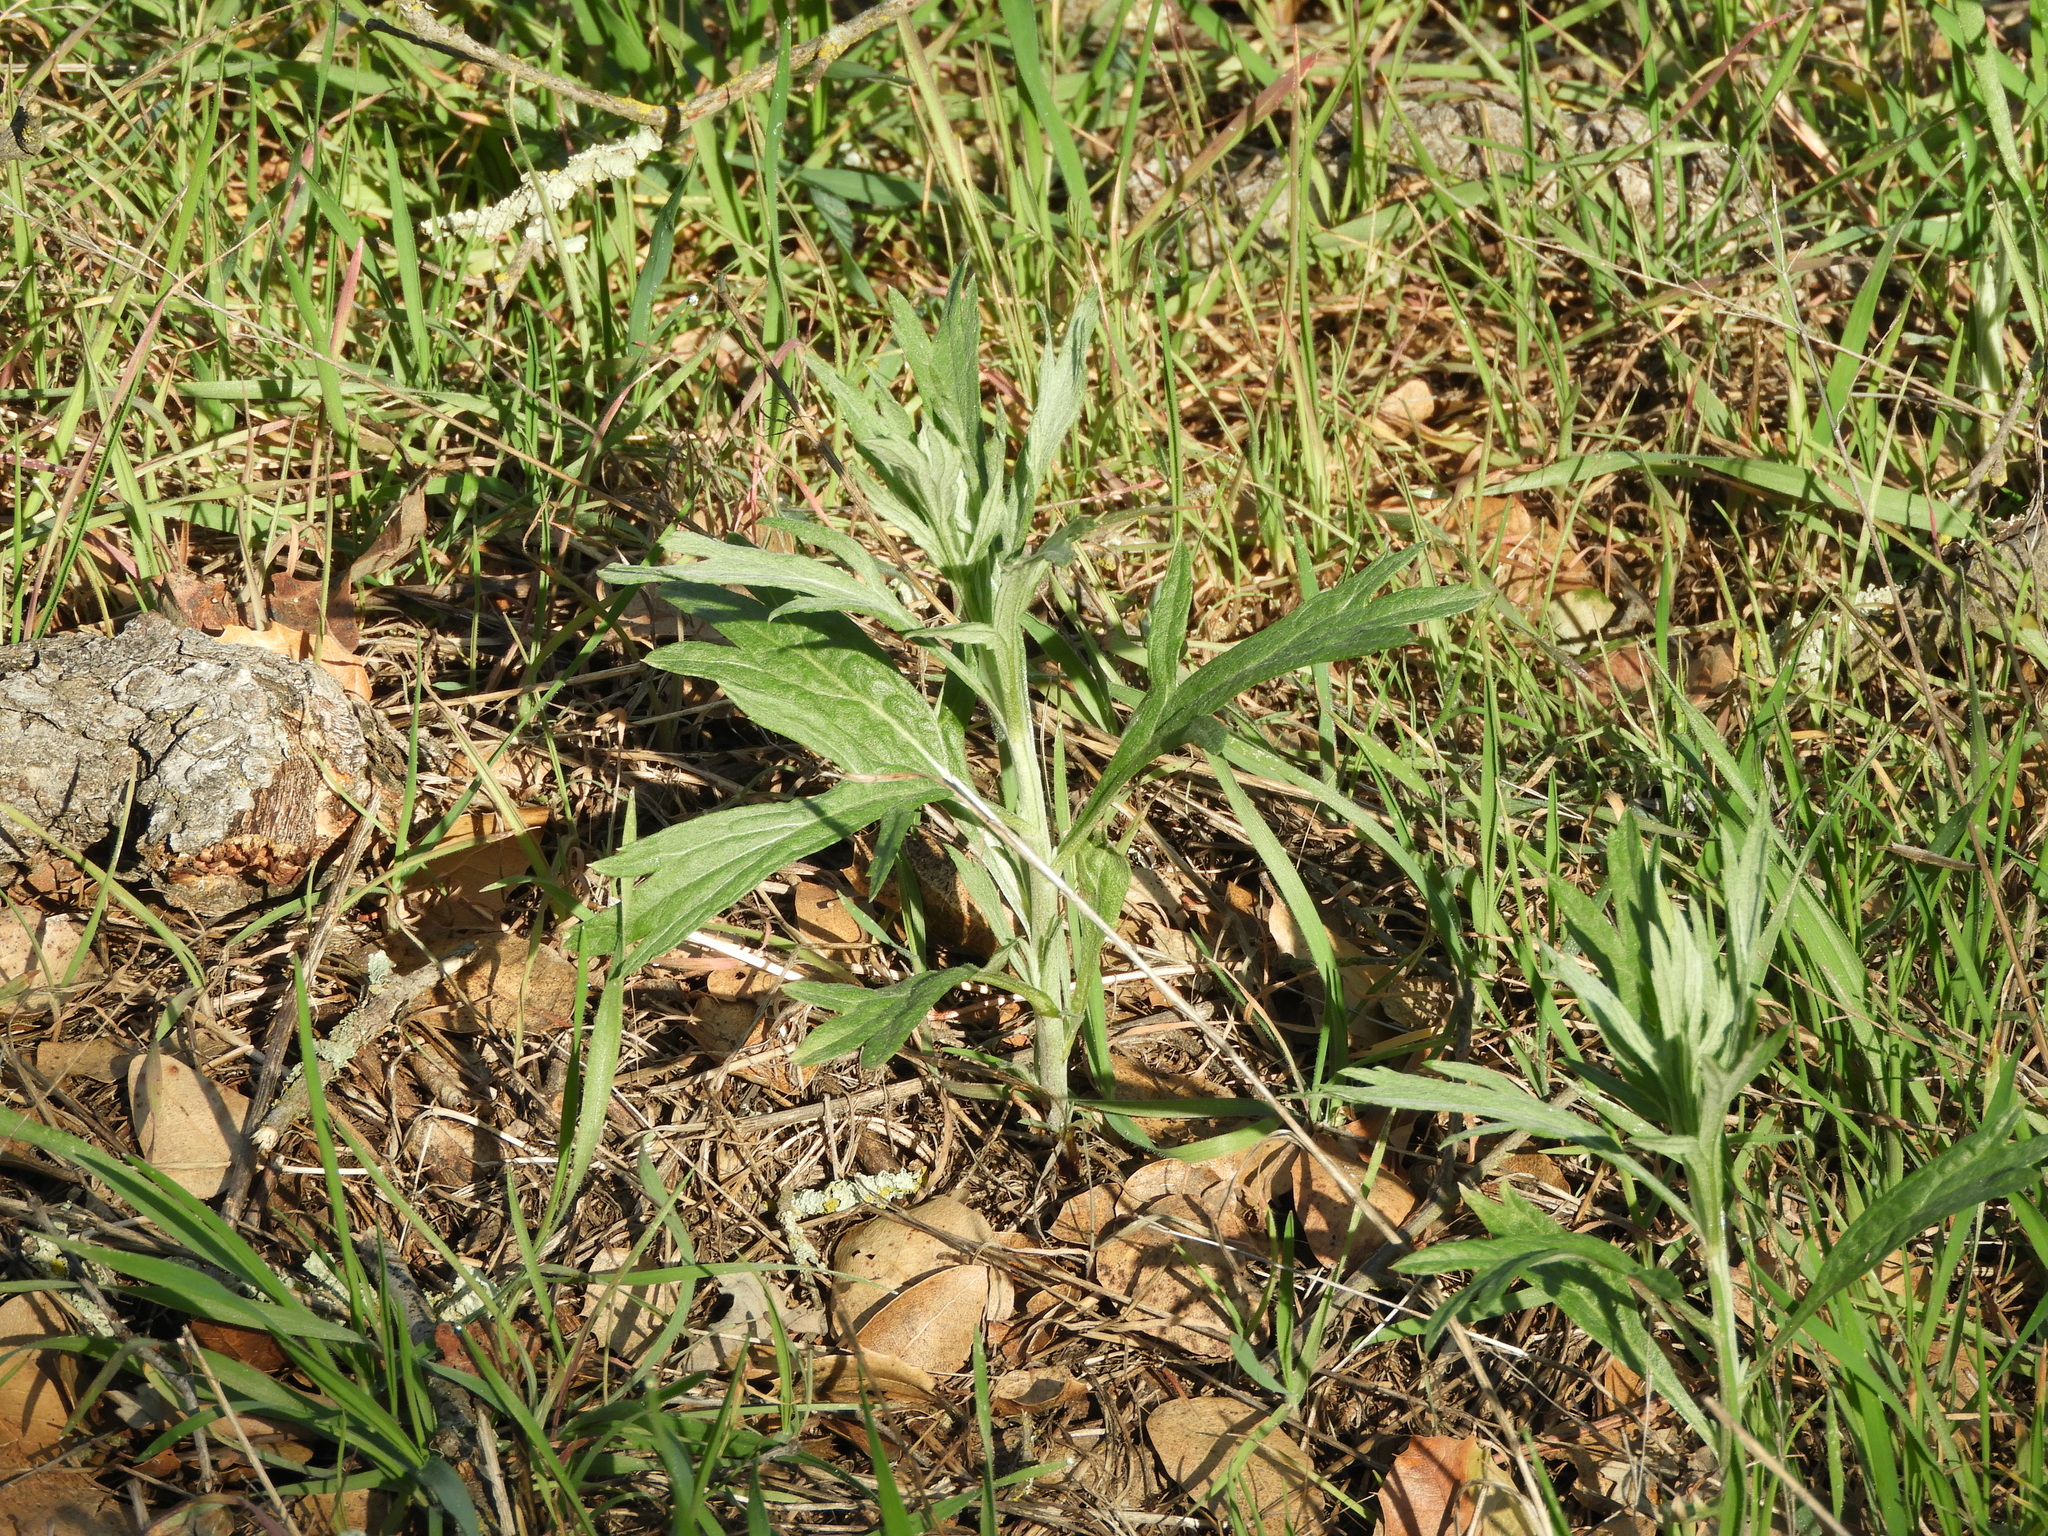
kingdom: Plantae
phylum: Tracheophyta
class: Magnoliopsida
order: Asterales
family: Asteraceae
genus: Artemisia
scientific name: Artemisia douglasiana
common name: Northwest mugwort
